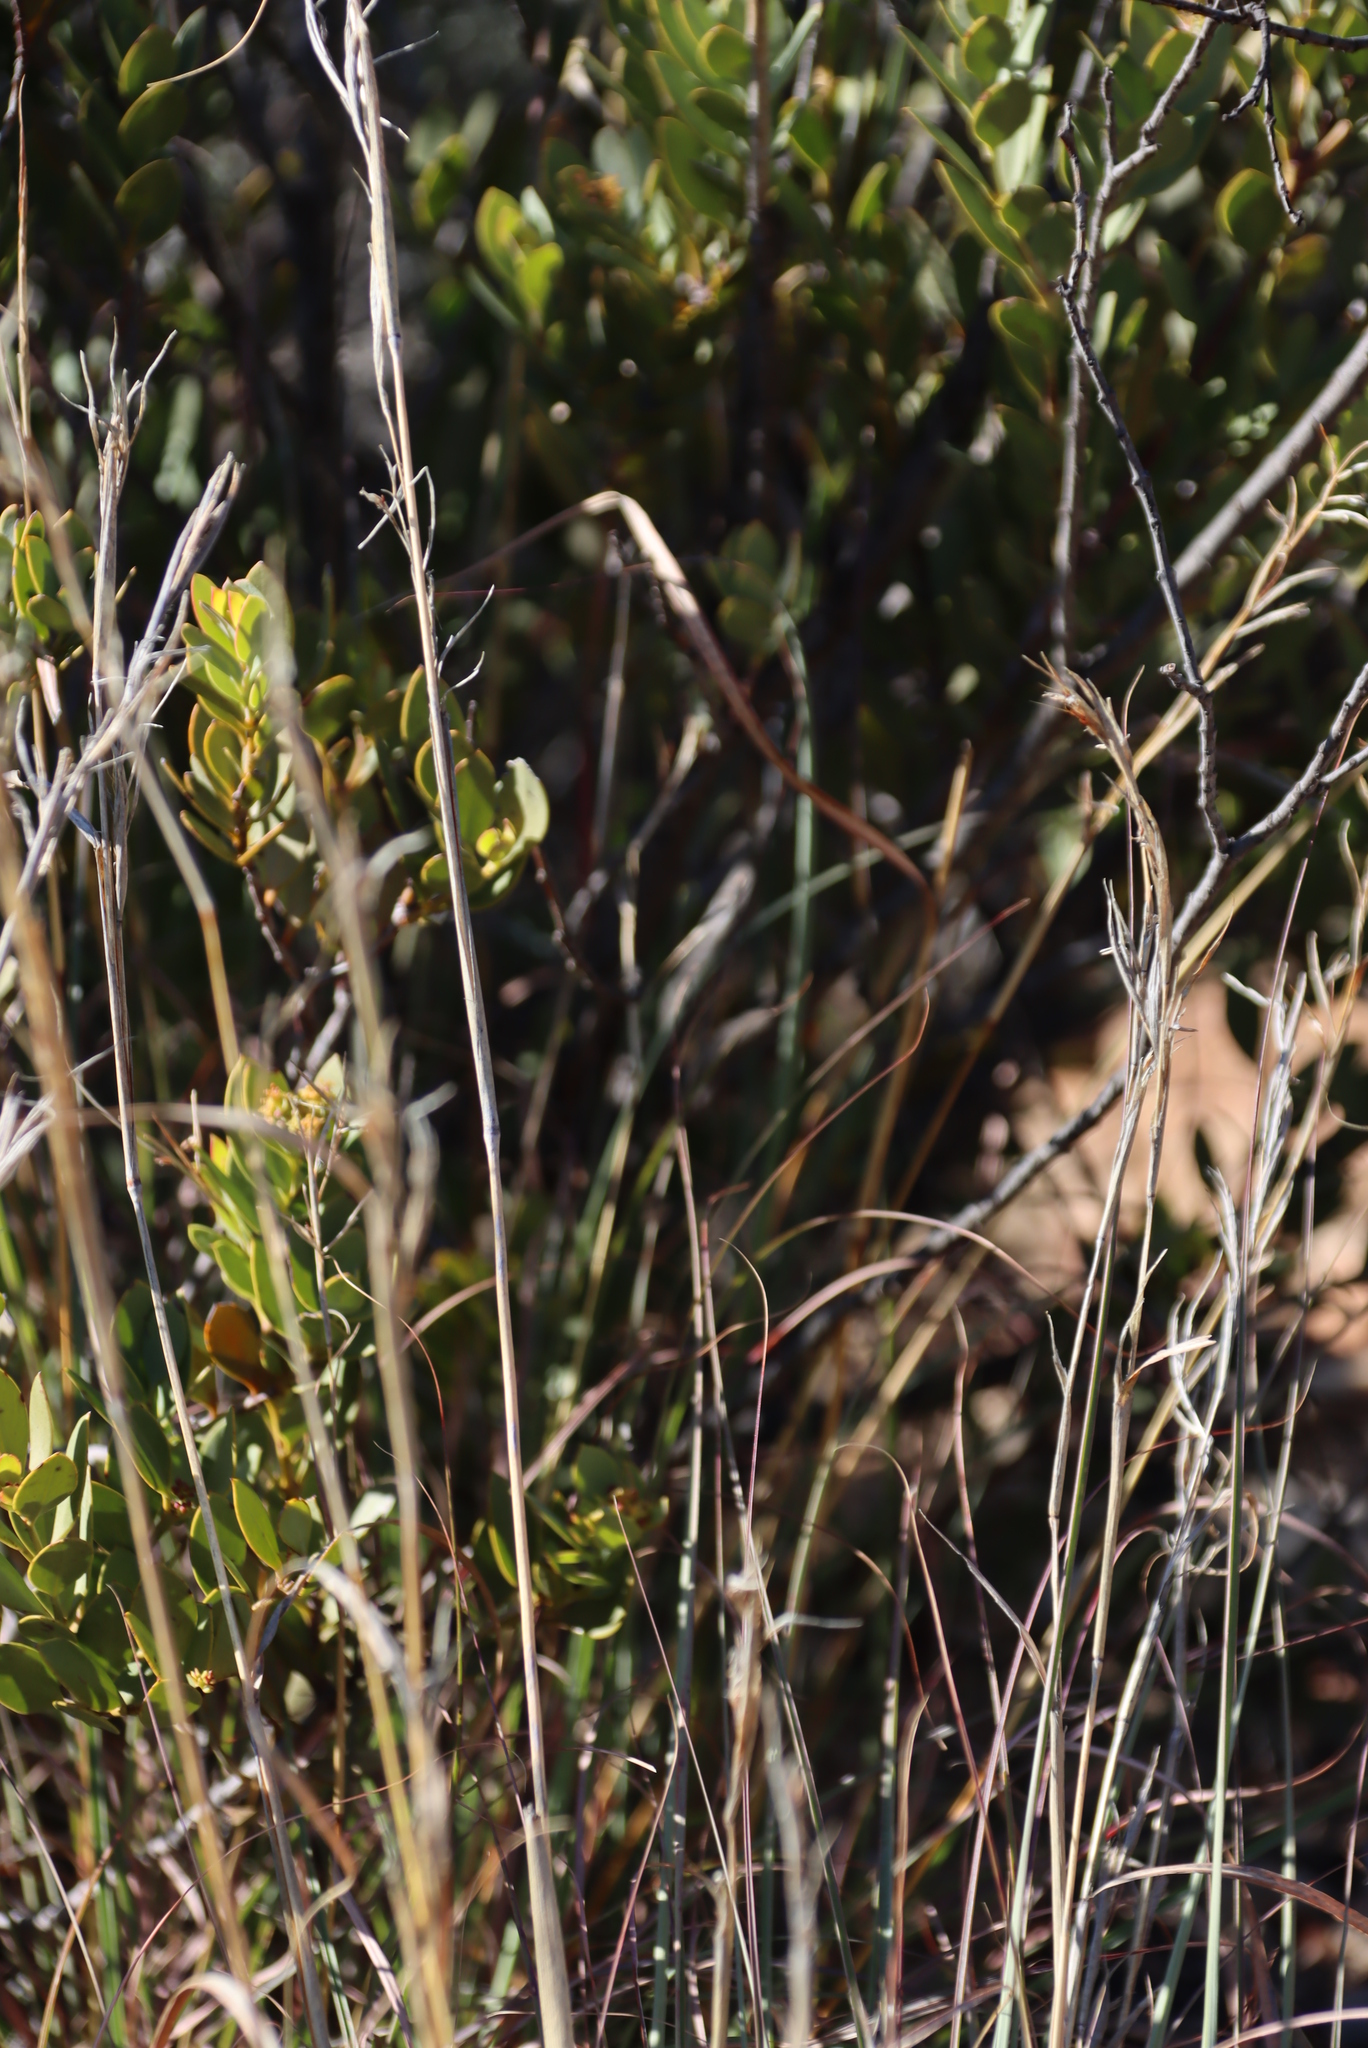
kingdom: Plantae
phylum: Tracheophyta
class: Liliopsida
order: Poales
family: Poaceae
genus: Cymbopogon
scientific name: Cymbopogon pospischilii
